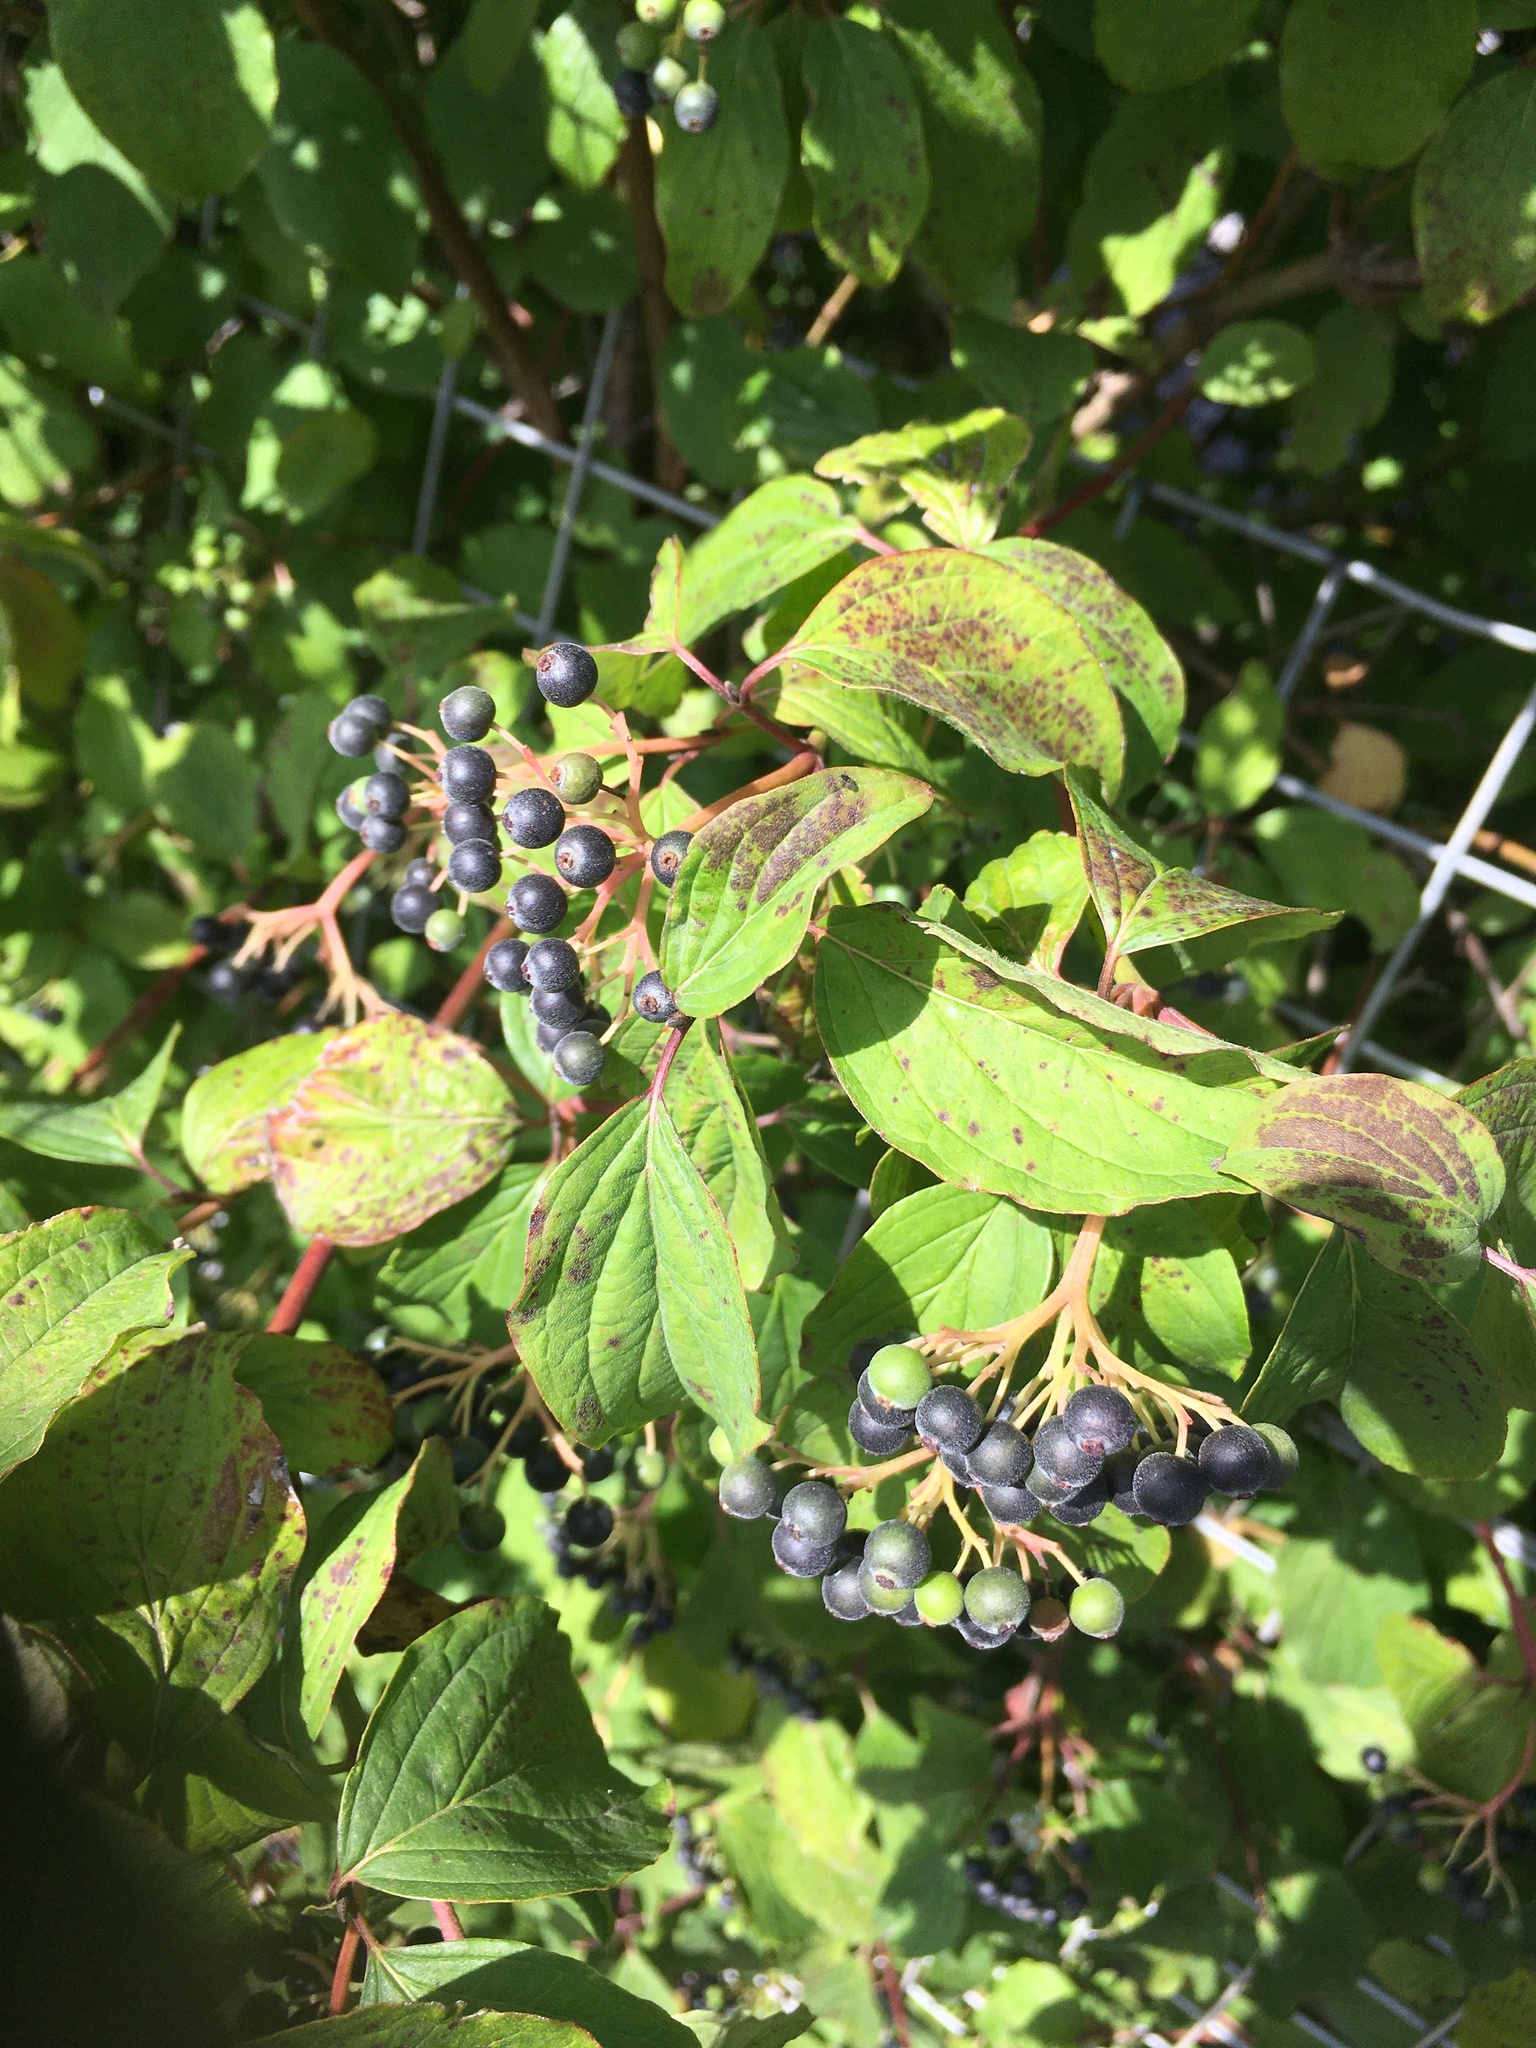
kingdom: Plantae
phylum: Tracheophyta
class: Magnoliopsida
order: Cornales
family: Cornaceae
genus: Cornus
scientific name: Cornus sanguinea
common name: Dogwood
